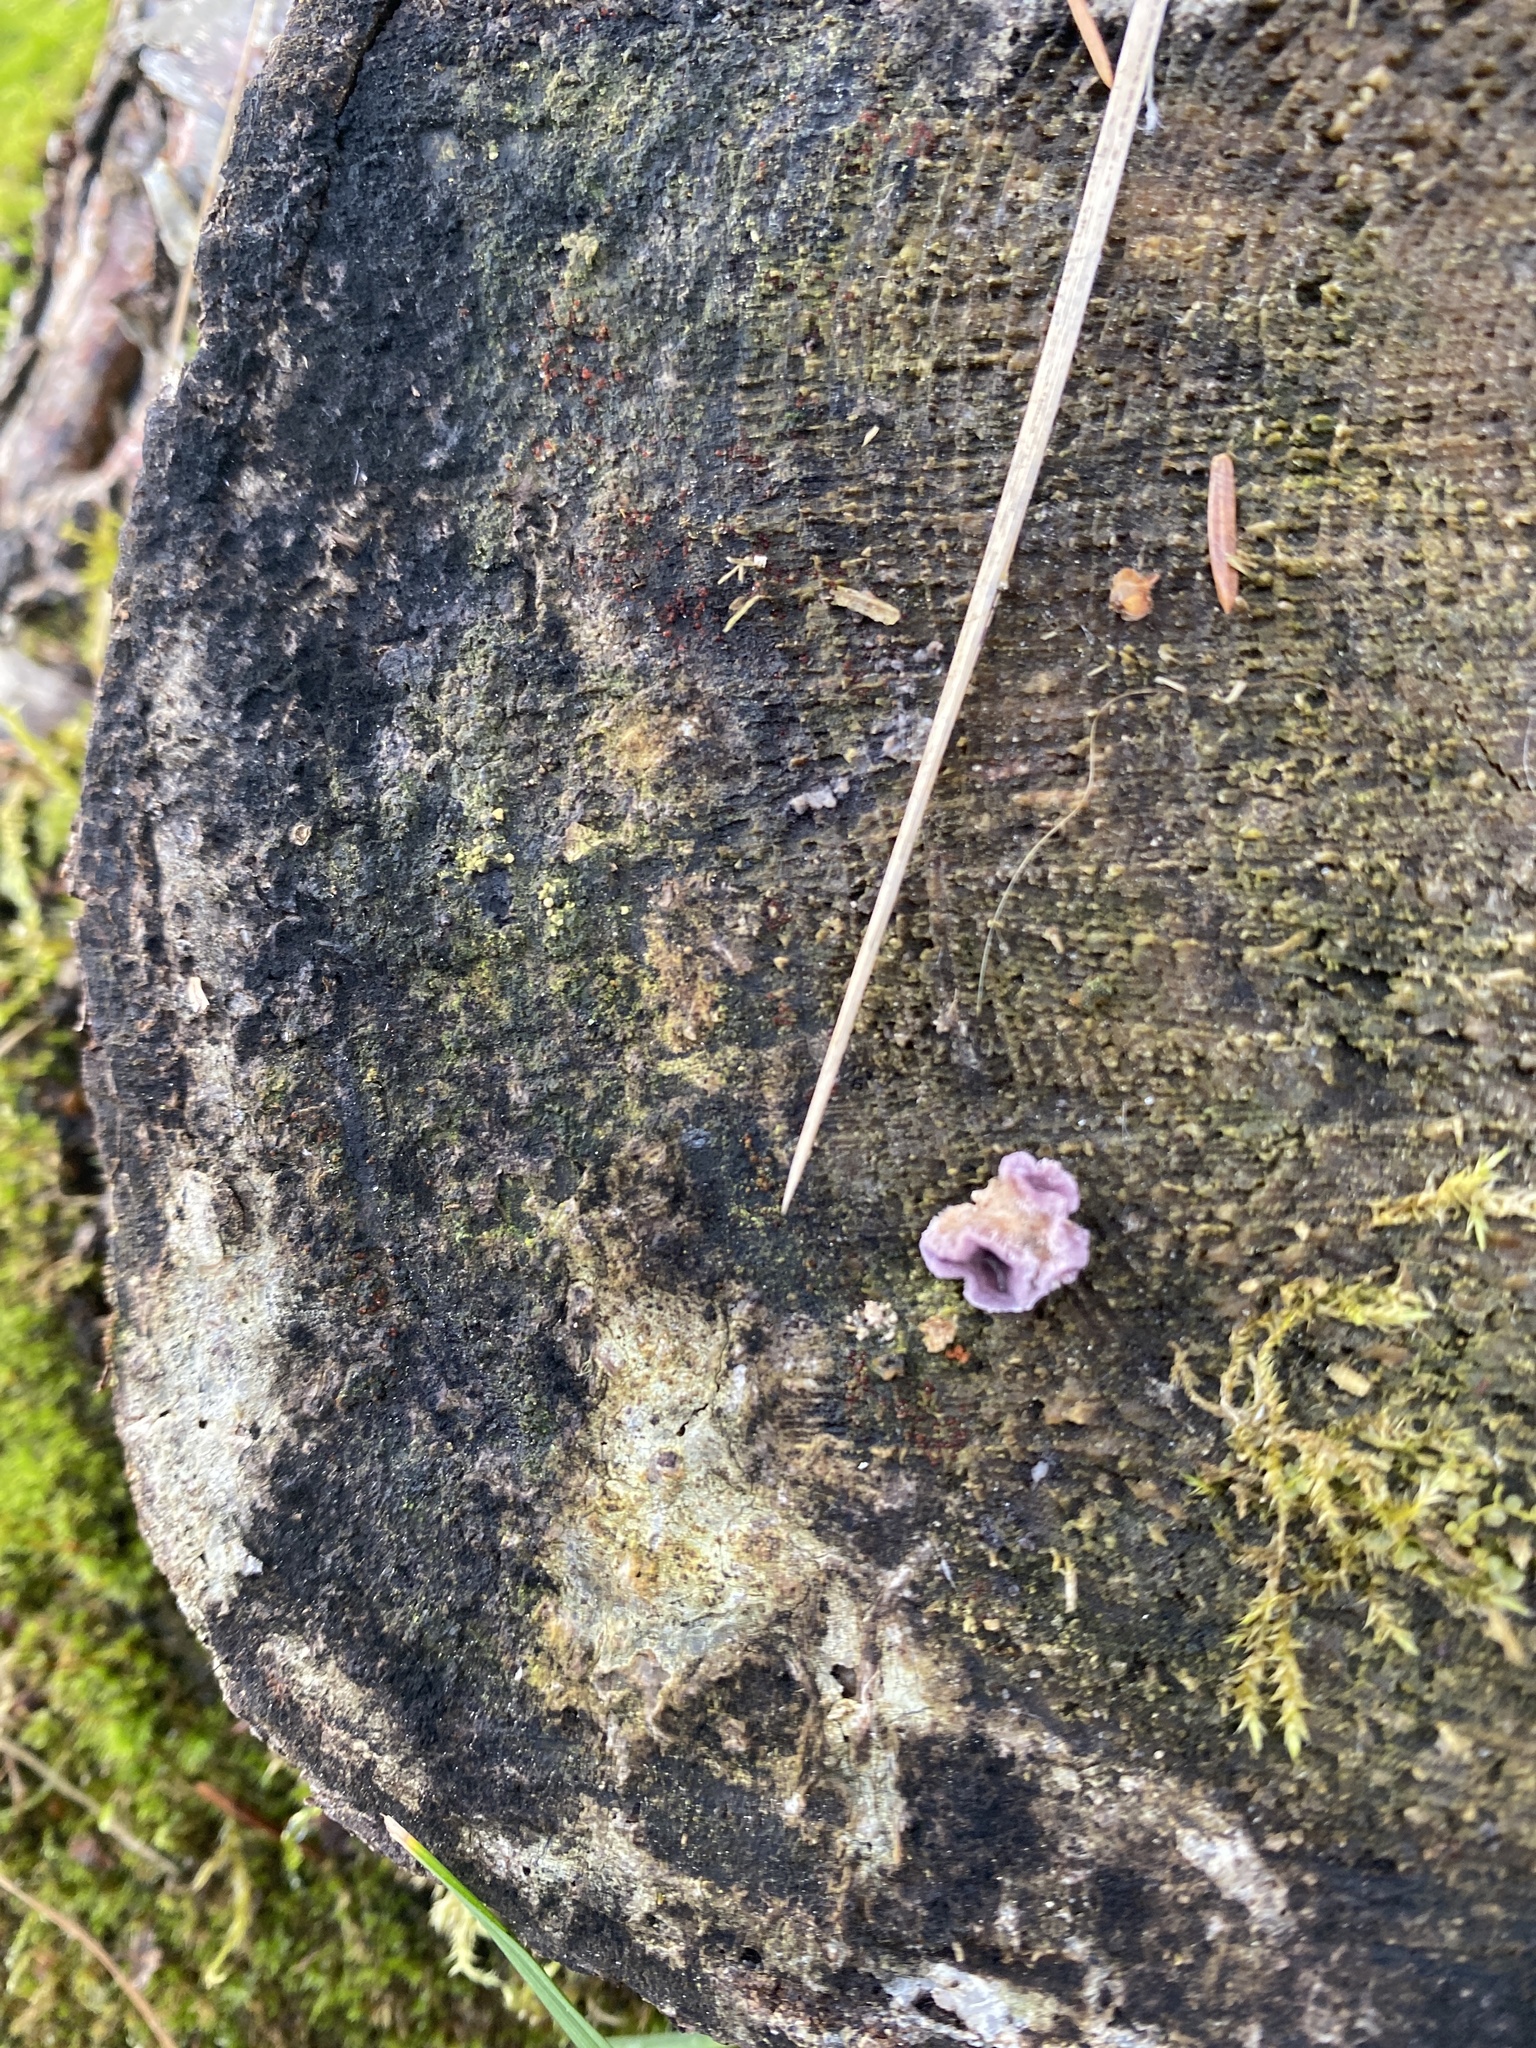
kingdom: Fungi
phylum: Basidiomycota
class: Agaricomycetes
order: Agaricales
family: Cyphellaceae
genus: Chondrostereum
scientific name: Chondrostereum purpureum
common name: Silver leaf disease
